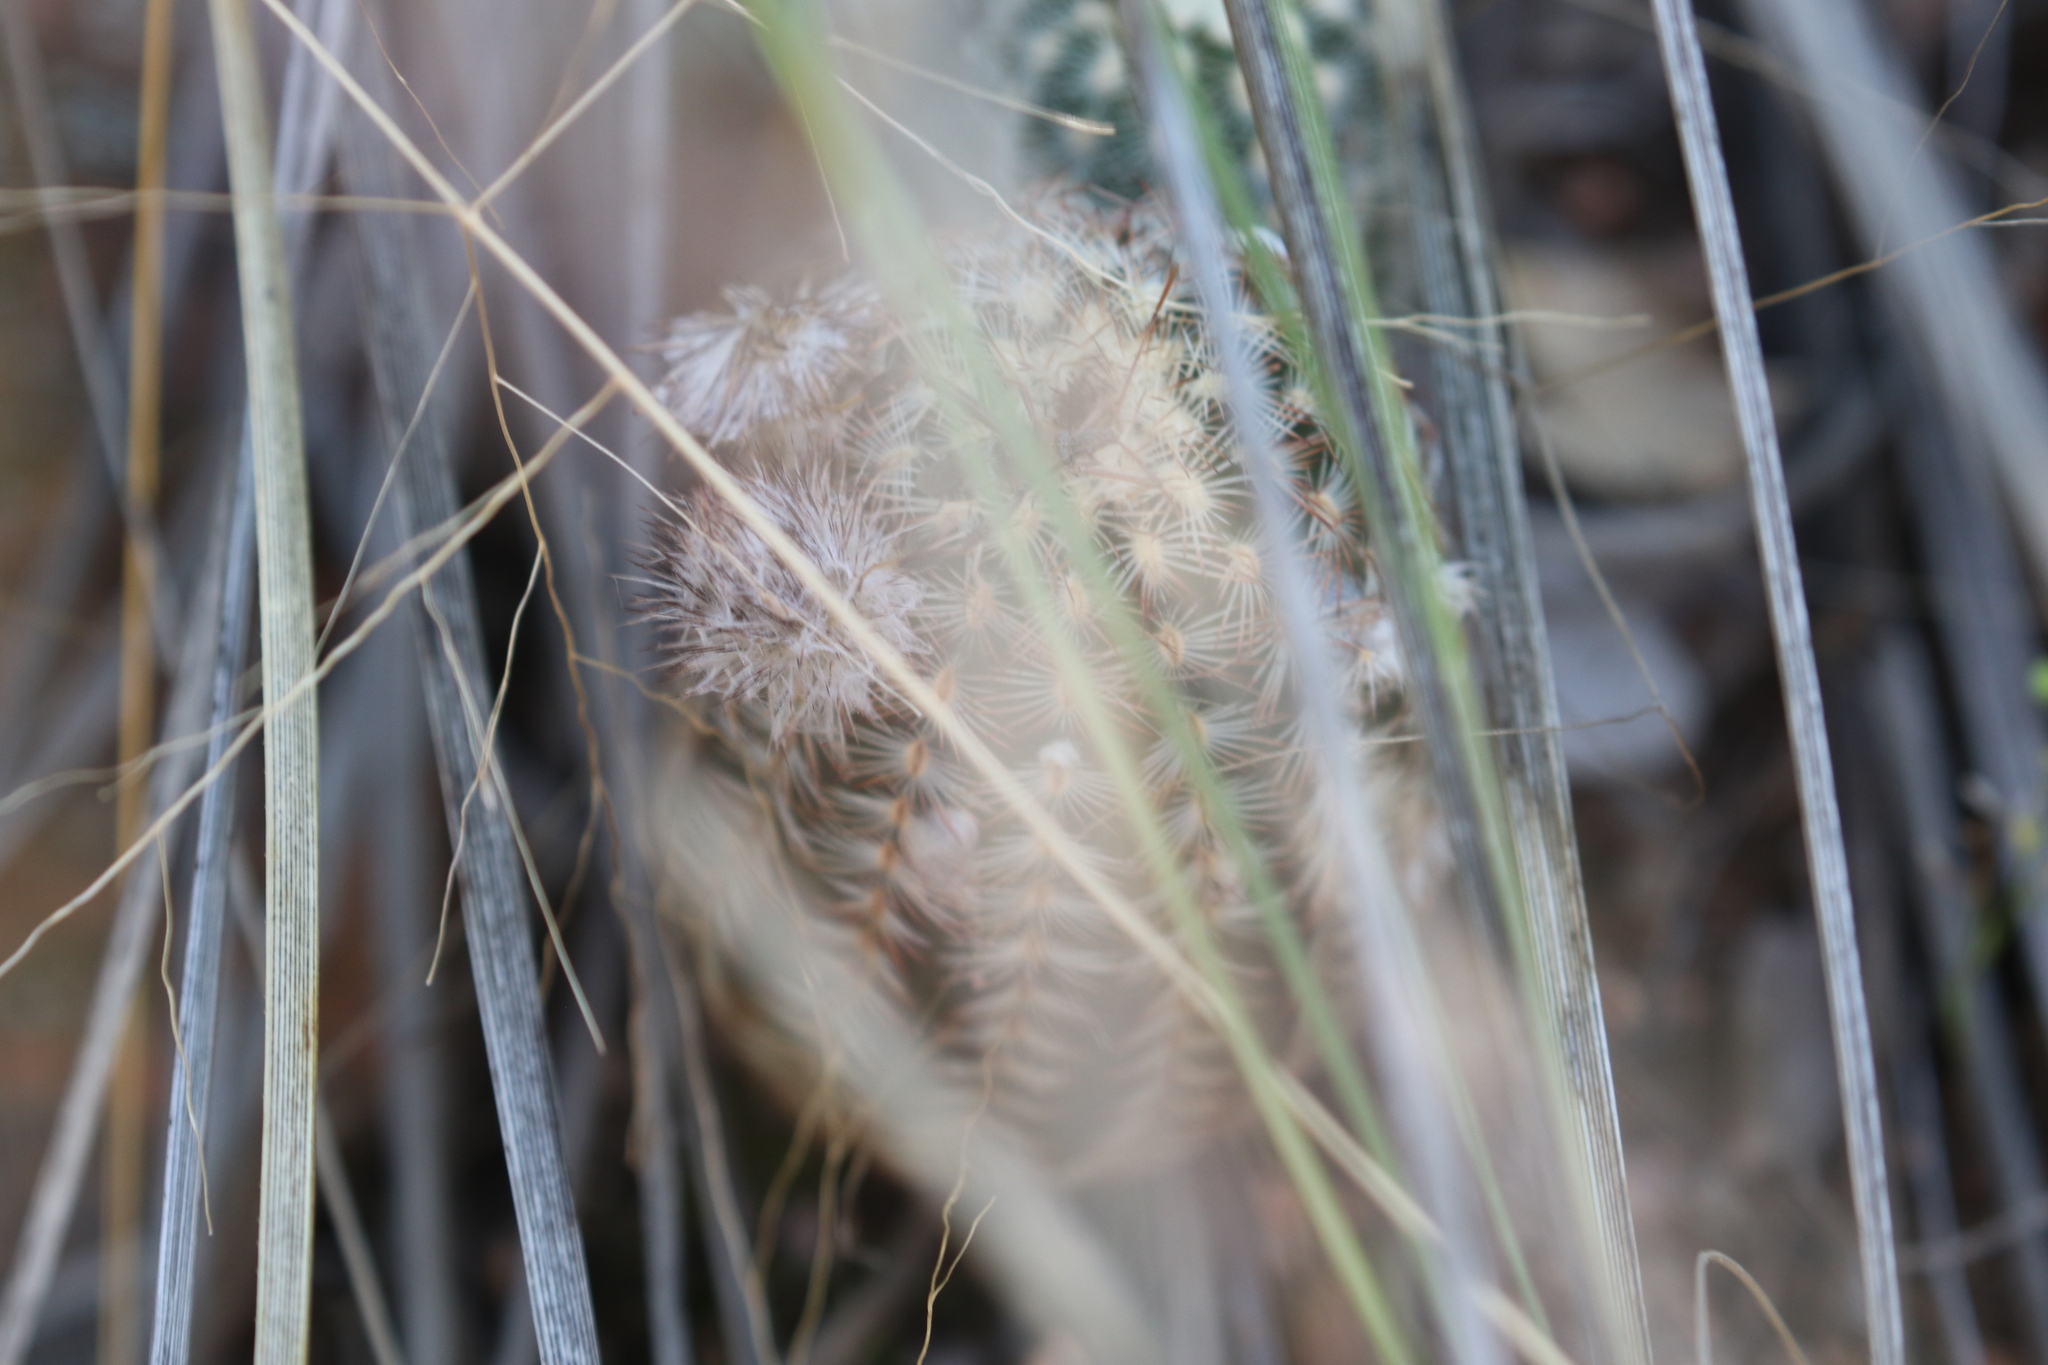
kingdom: Plantae
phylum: Tracheophyta
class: Magnoliopsida
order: Caryophyllales
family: Cactaceae
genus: Echinocereus
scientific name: Echinocereus reichenbachii
